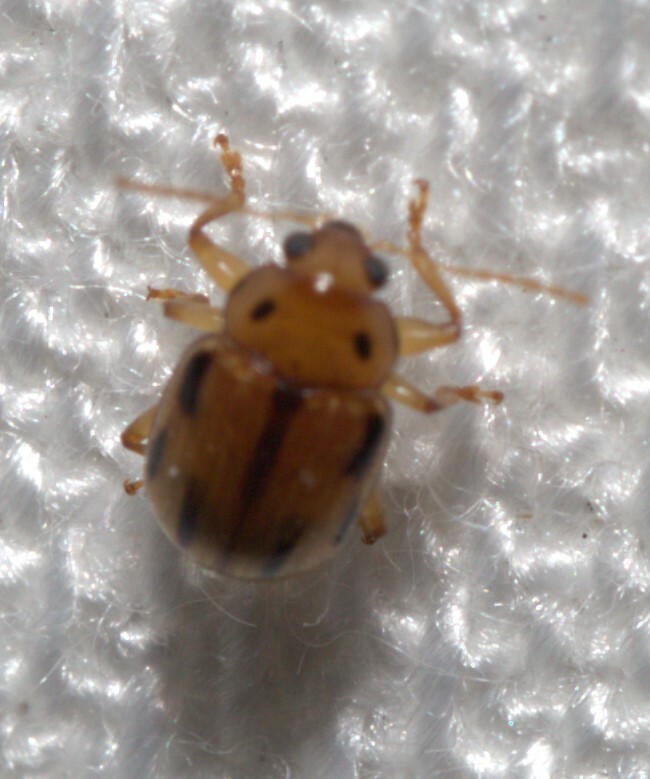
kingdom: Animalia
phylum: Arthropoda
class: Insecta
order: Coleoptera
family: Chrysomelidae
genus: Rhyparida
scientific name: Rhyparida
